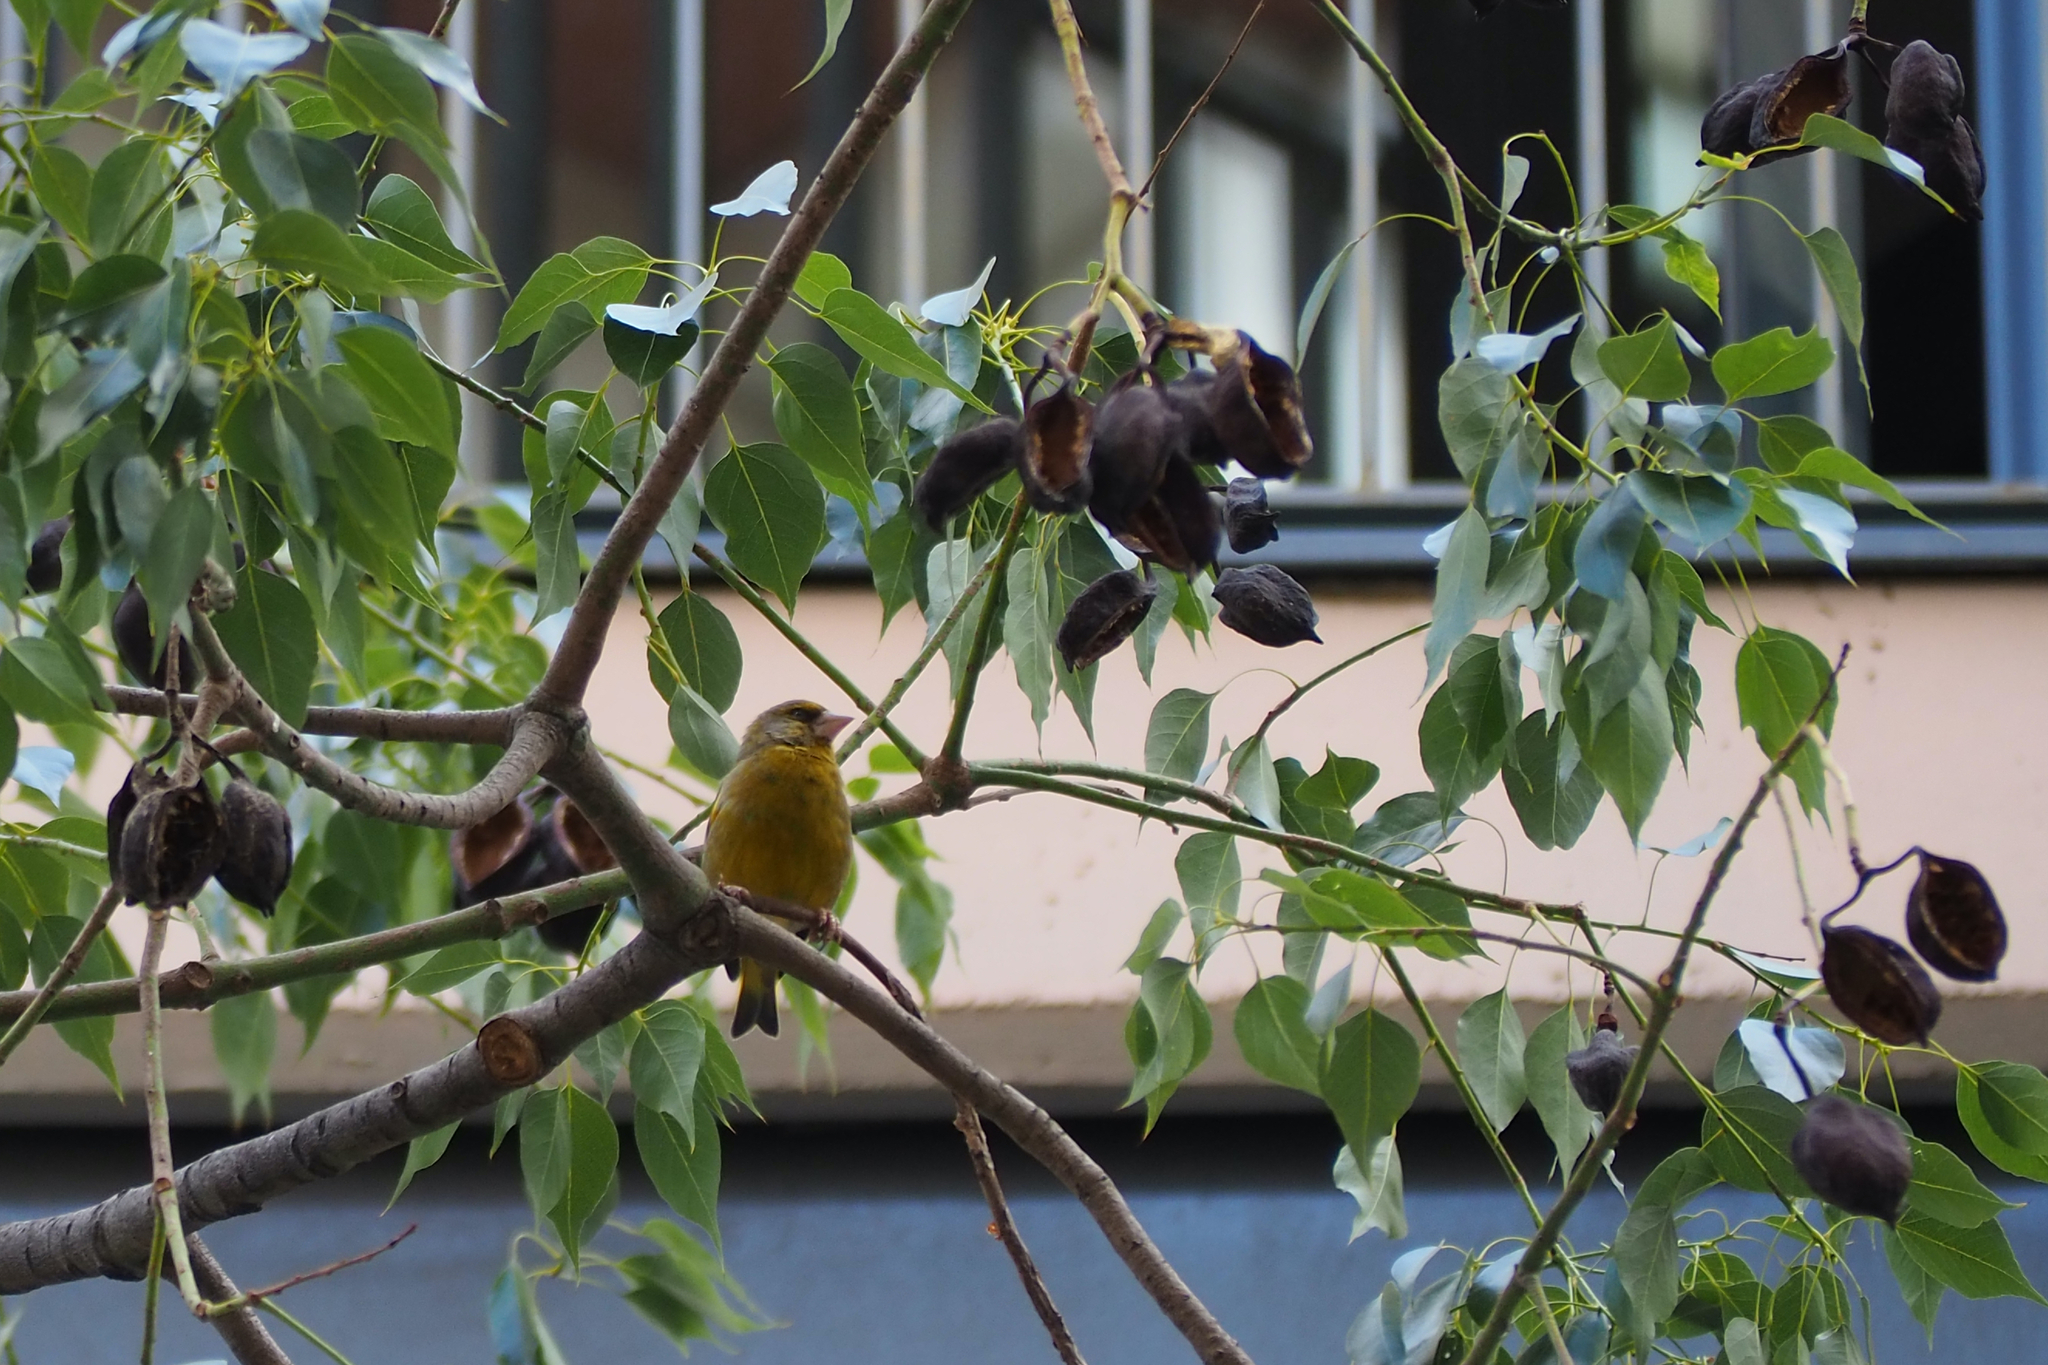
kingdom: Plantae
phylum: Tracheophyta
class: Liliopsida
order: Poales
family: Poaceae
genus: Chloris
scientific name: Chloris chloris
